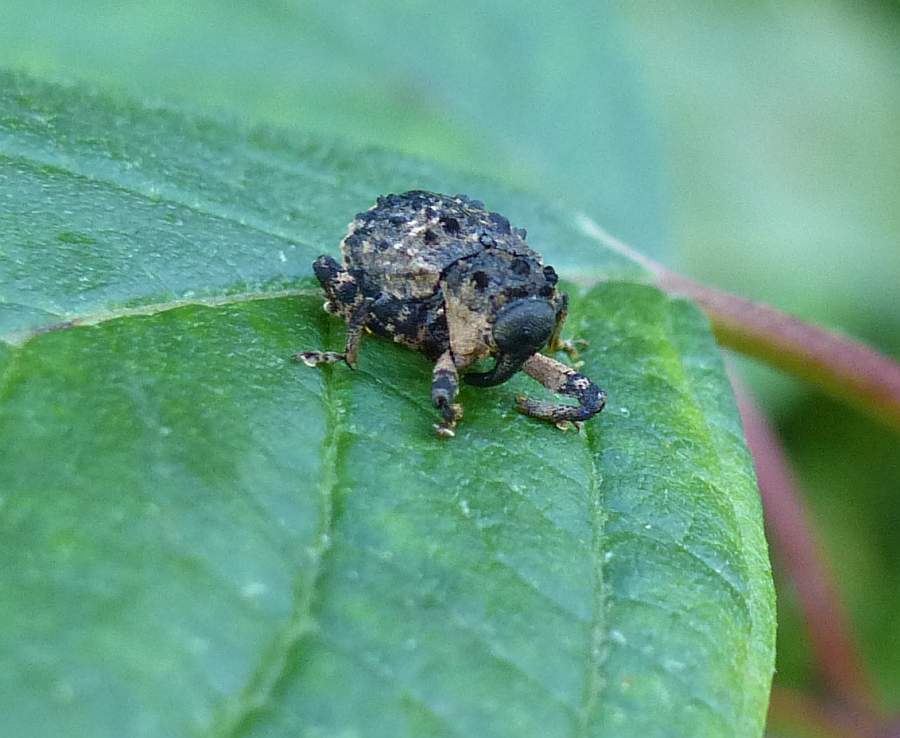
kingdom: Animalia
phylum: Arthropoda
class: Insecta
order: Coleoptera
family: Curculionidae
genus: Cryptorhynchus
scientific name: Cryptorhynchus lapathi
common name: Weevil
